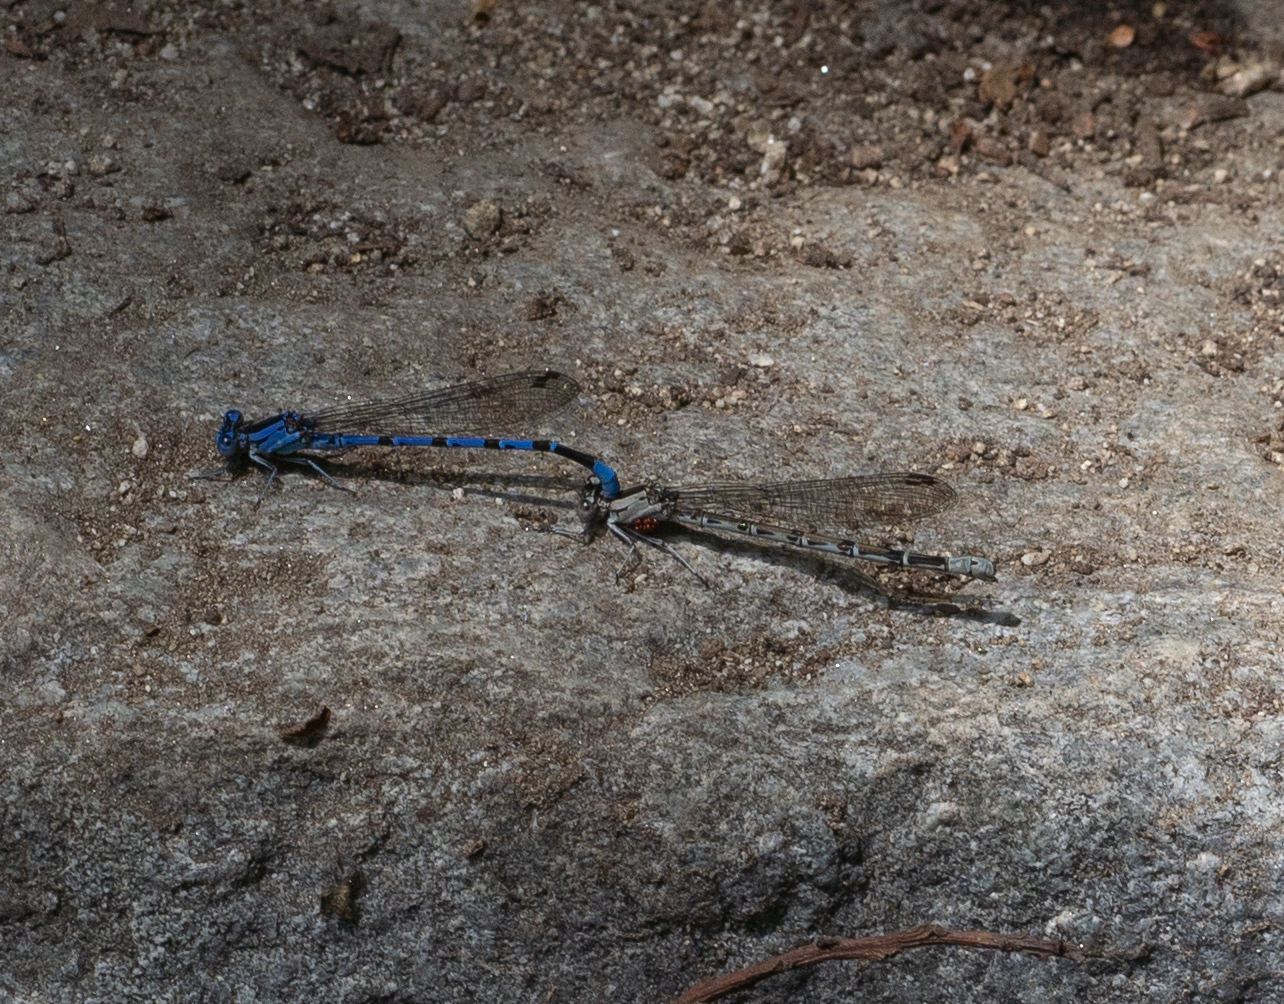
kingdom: Animalia
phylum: Arthropoda
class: Insecta
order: Odonata
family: Coenagrionidae
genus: Argia
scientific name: Argia vivida
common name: Vivid dancer
